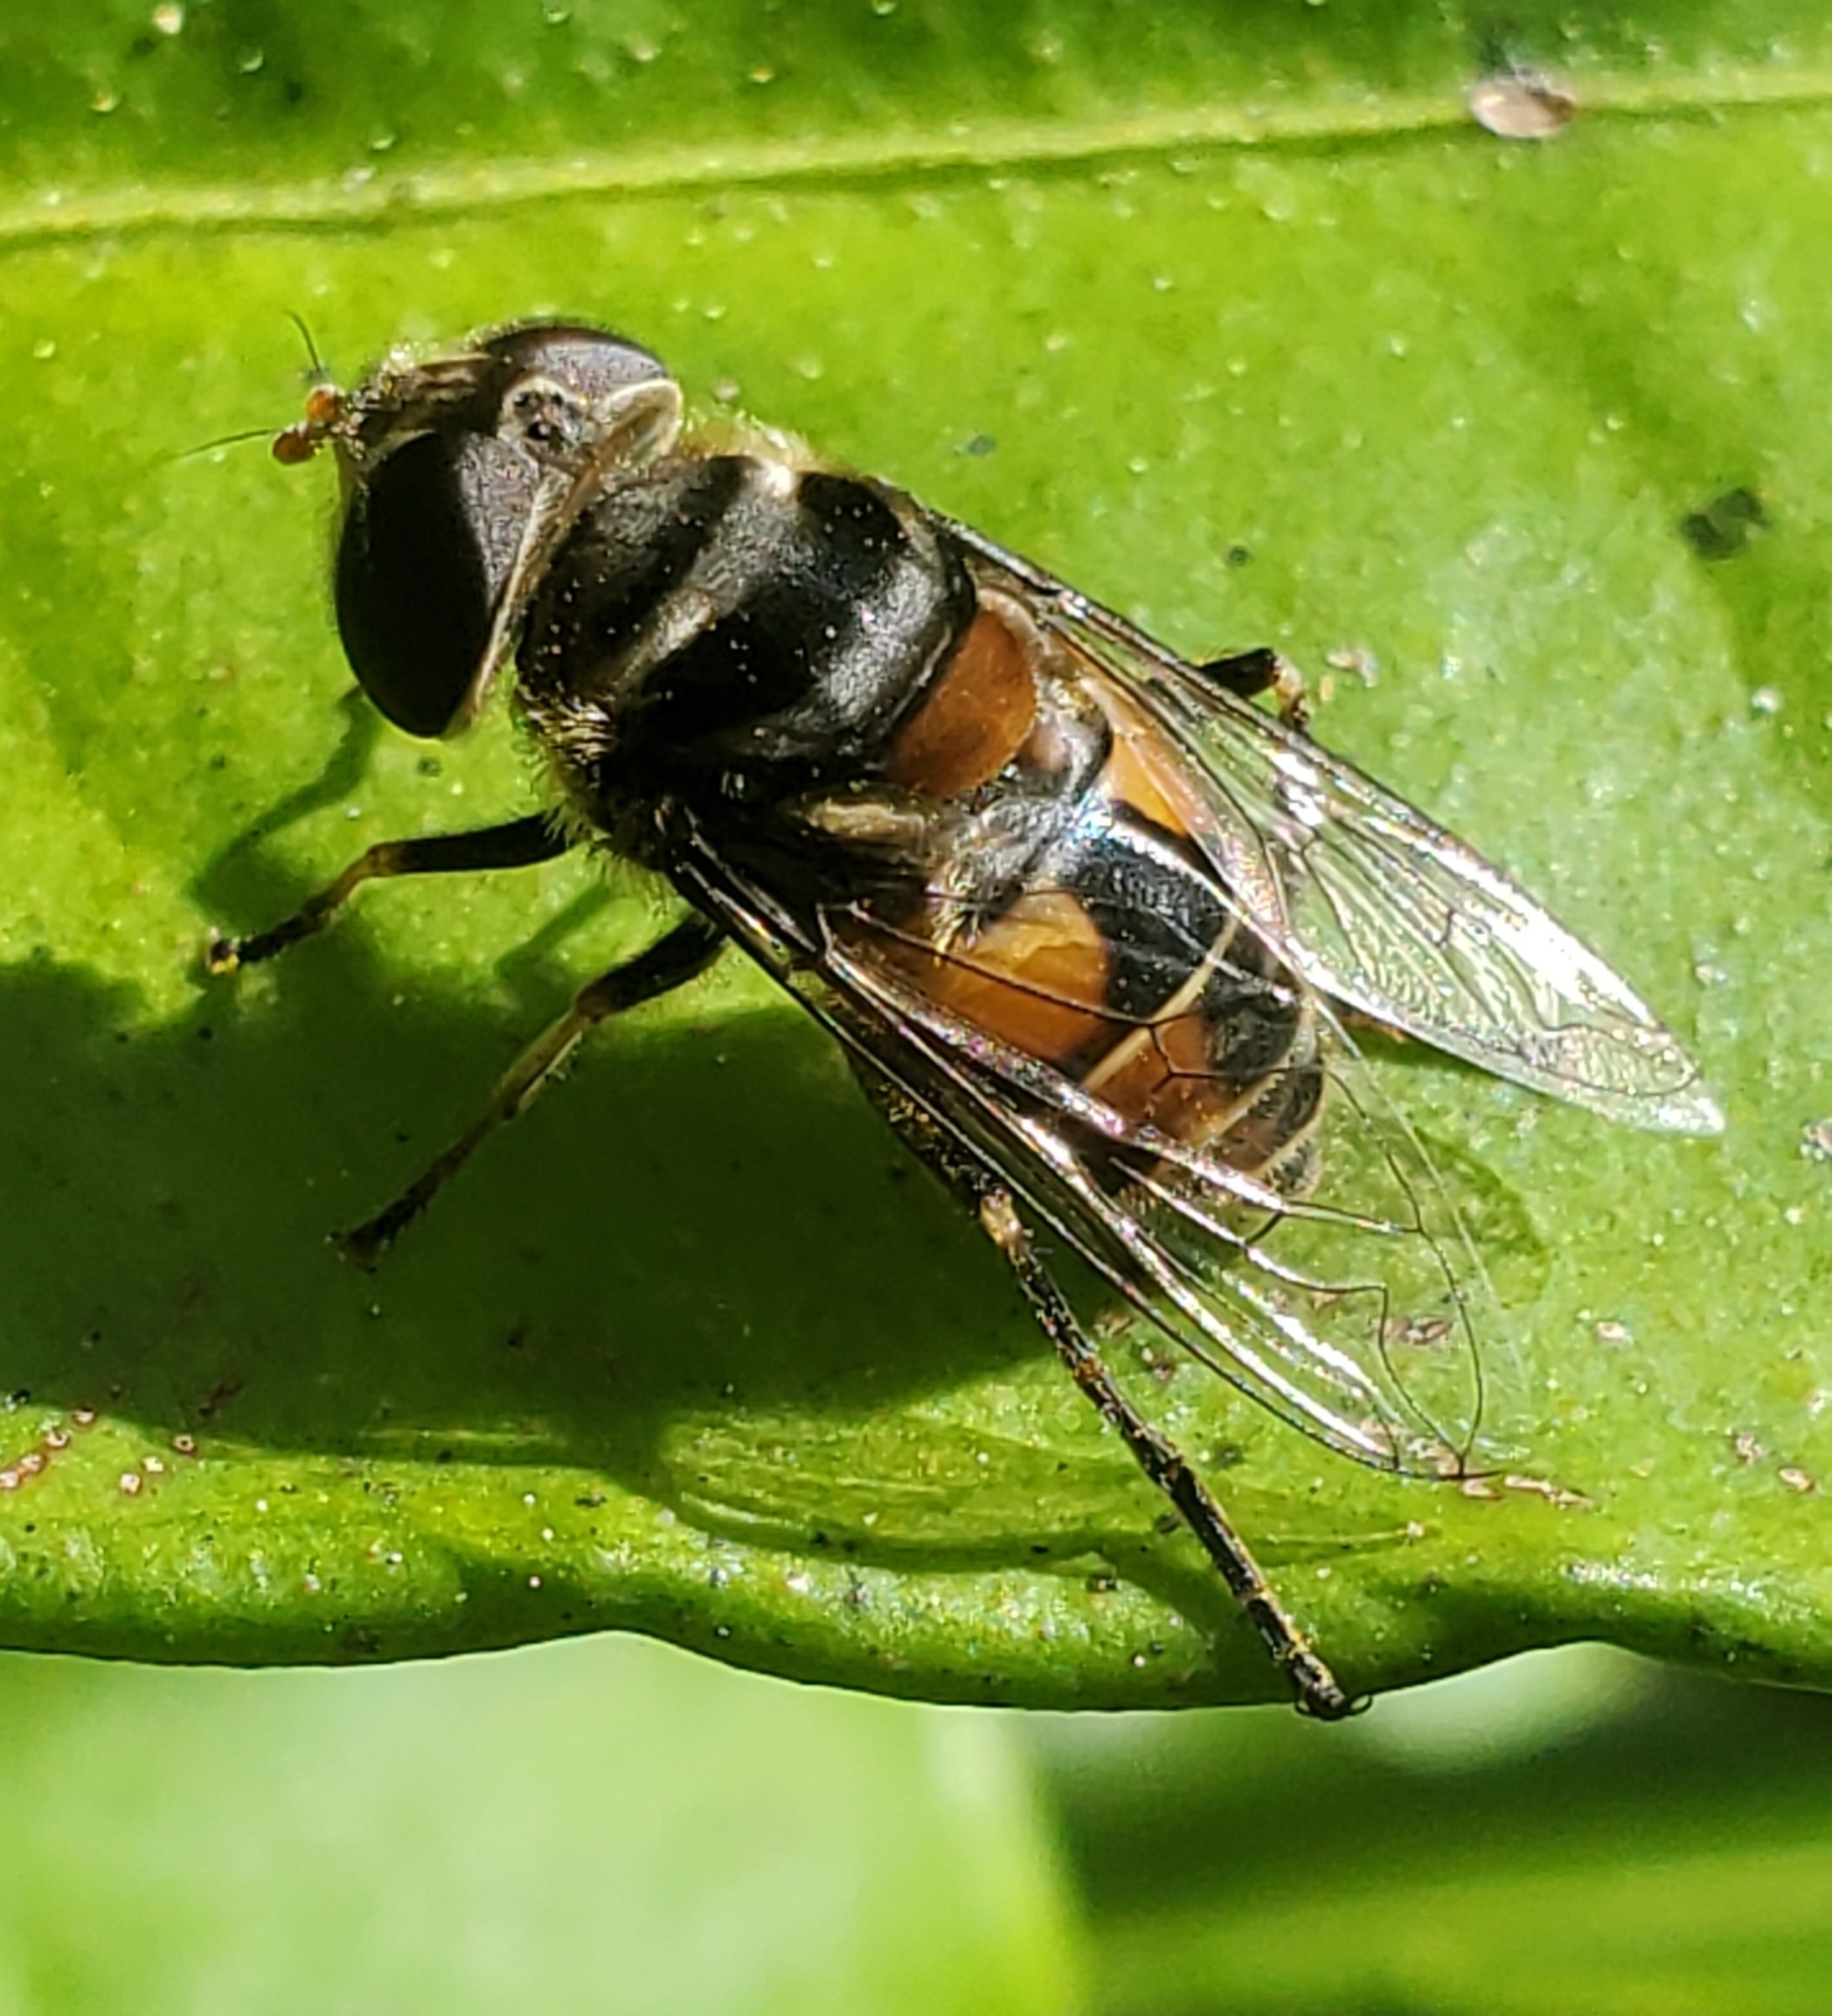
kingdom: Animalia
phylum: Arthropoda
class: Insecta
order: Diptera
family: Syrphidae
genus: Palpada
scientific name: Palpada agrorum
